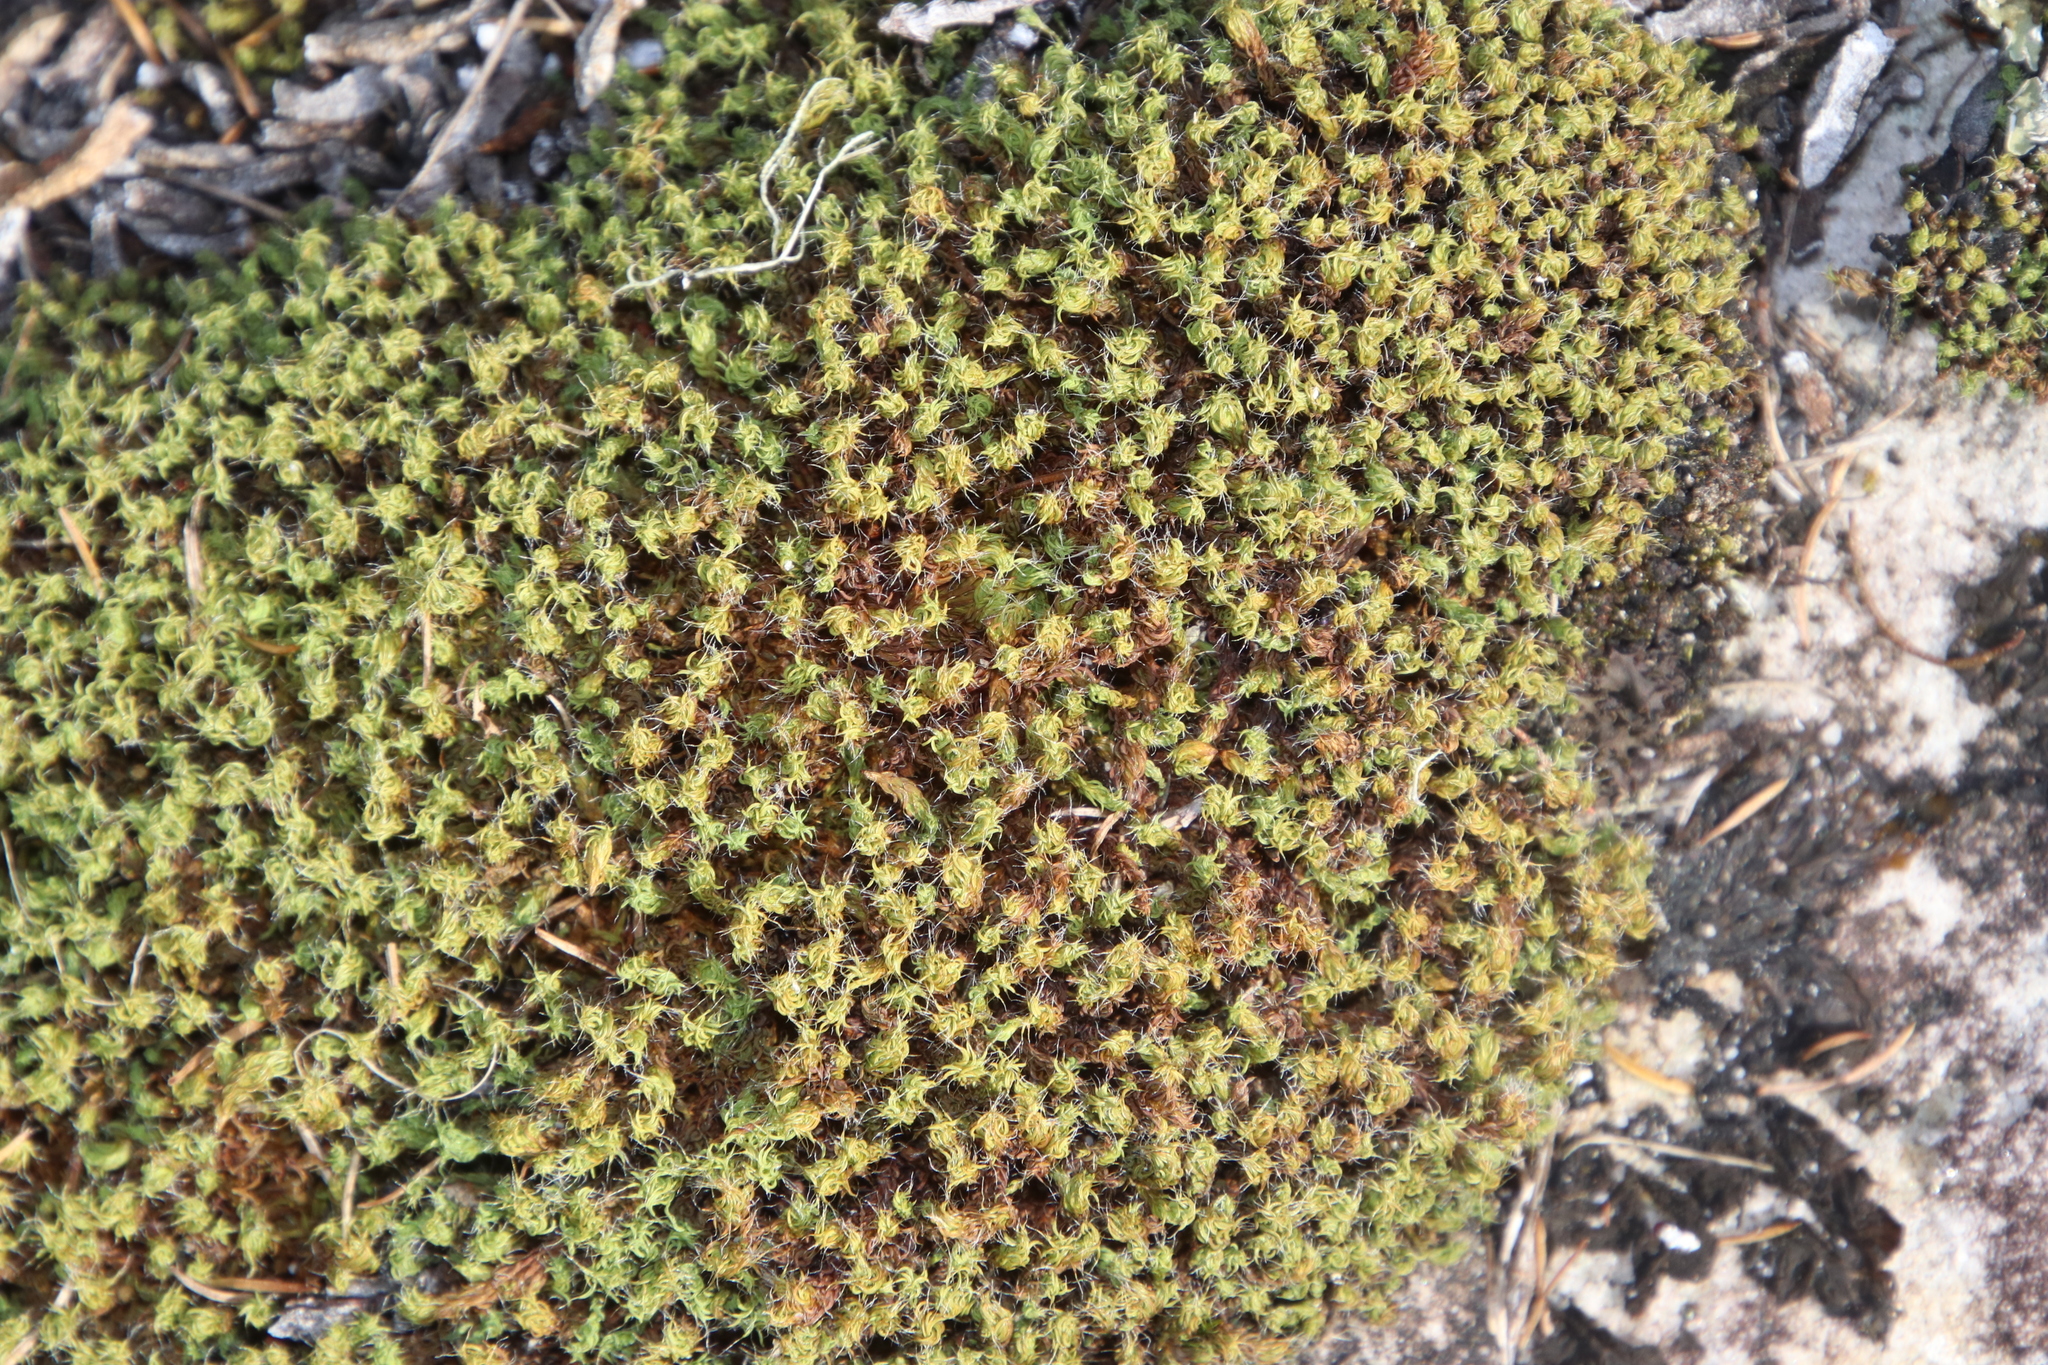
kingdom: Plantae
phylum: Bryophyta
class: Bryopsida
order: Pottiales
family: Pottiaceae
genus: Pseudocrossidium
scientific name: Pseudocrossidium crinitum
